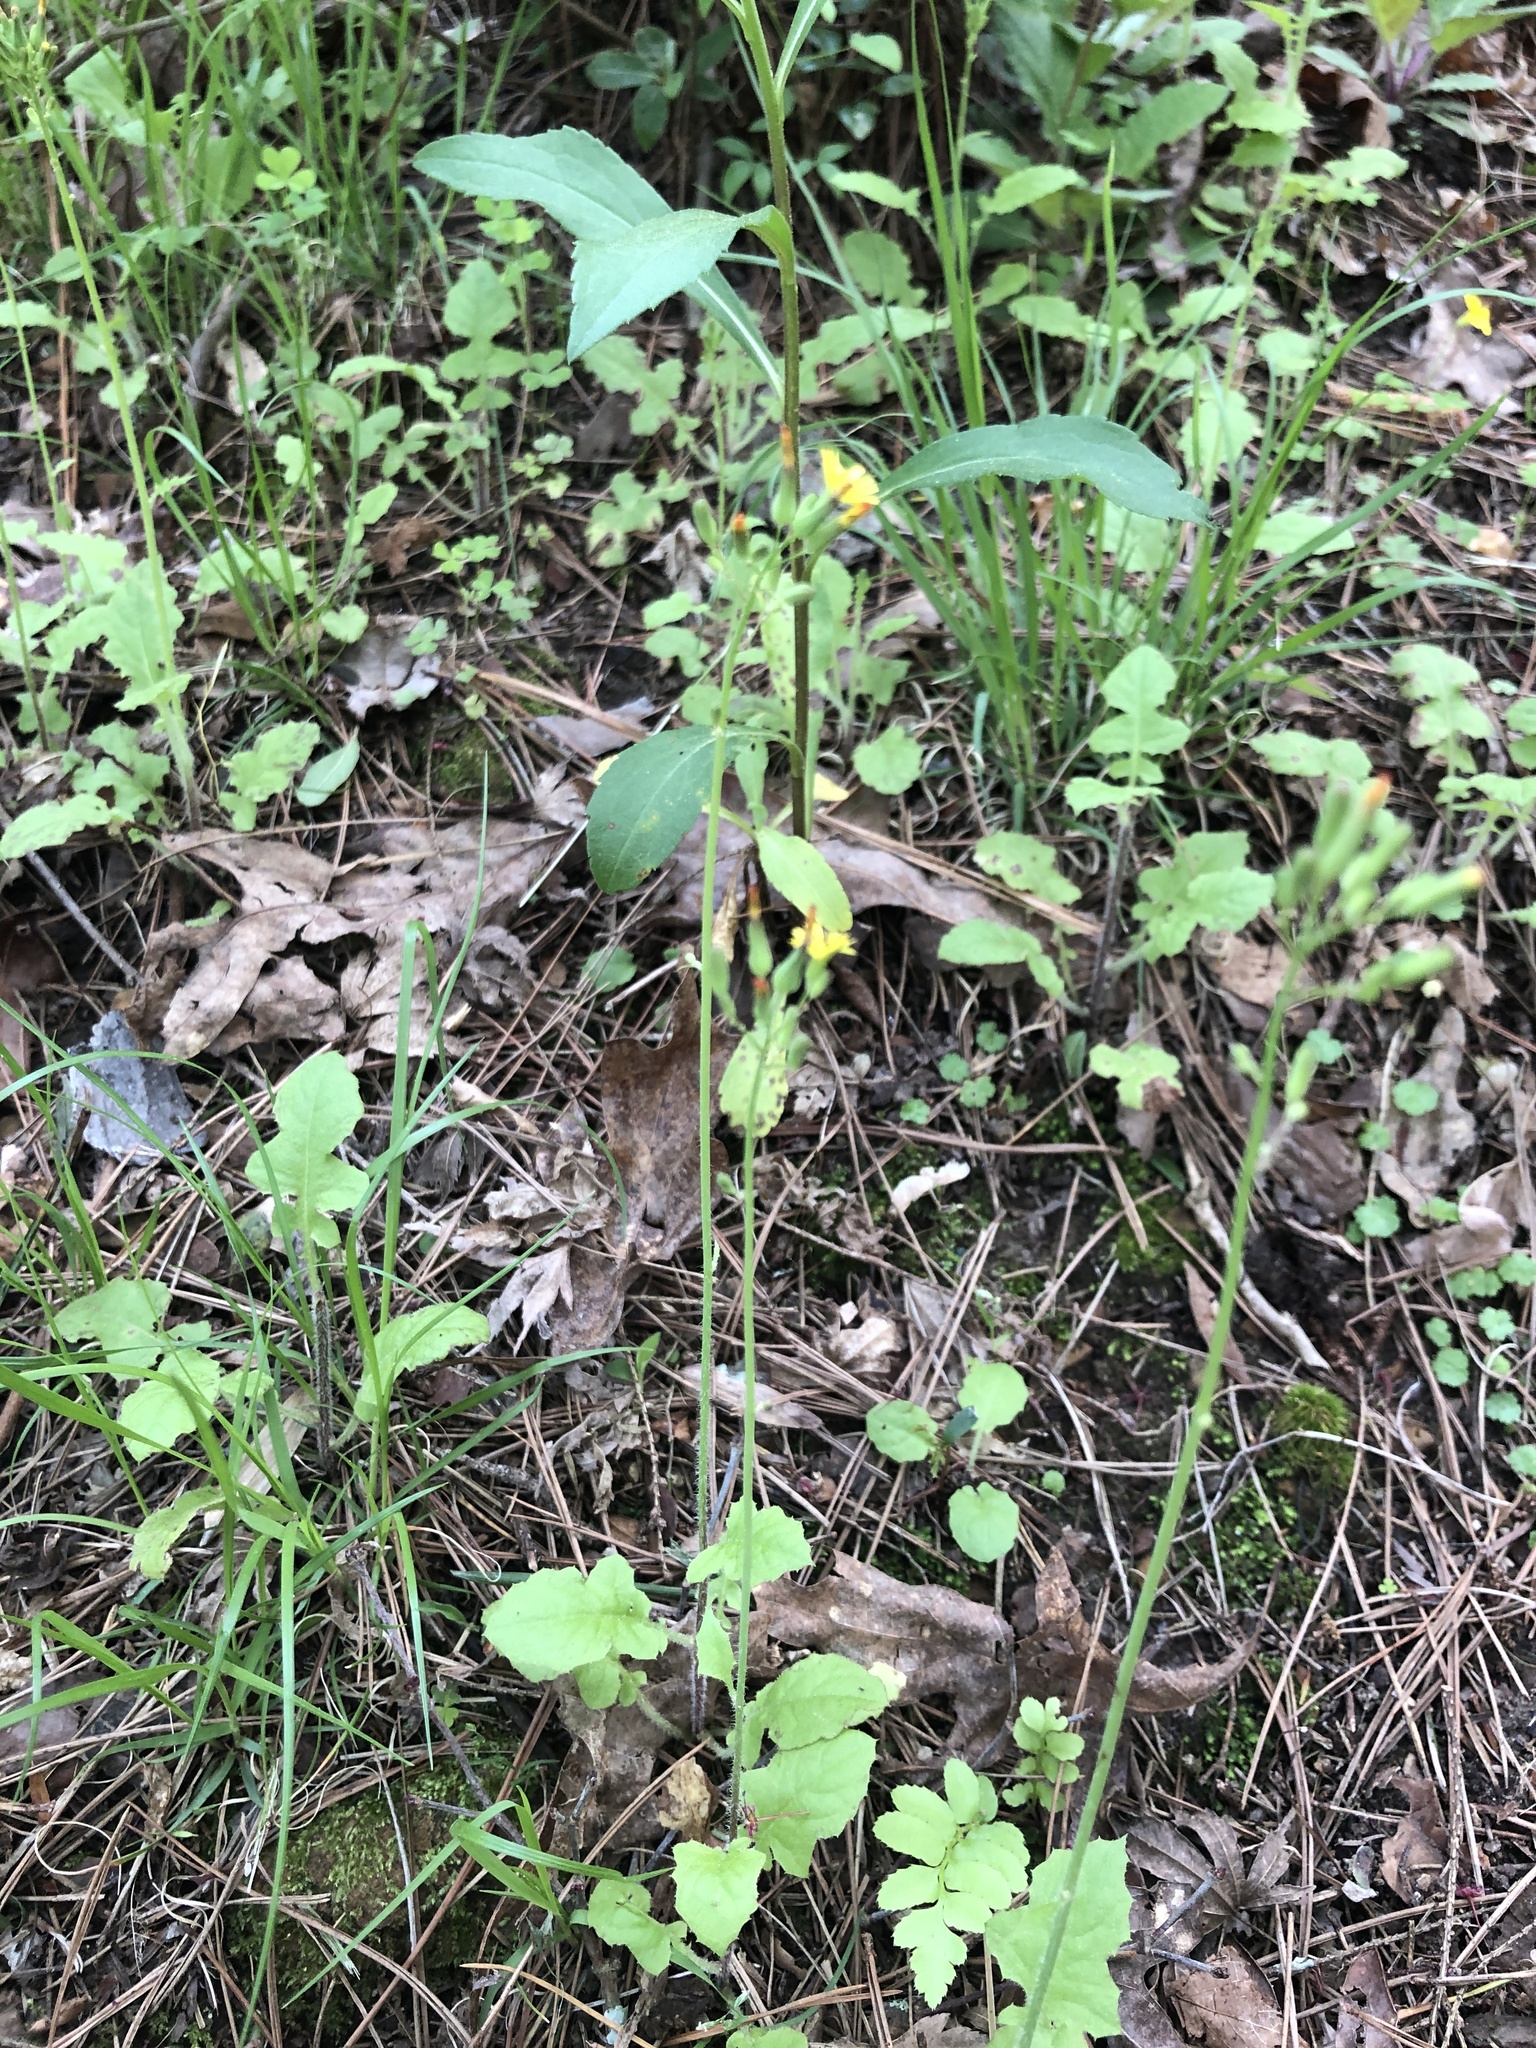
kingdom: Plantae
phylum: Tracheophyta
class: Magnoliopsida
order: Asterales
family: Asteraceae
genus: Youngia
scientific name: Youngia japonica
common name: Oriental false hawksbeard
